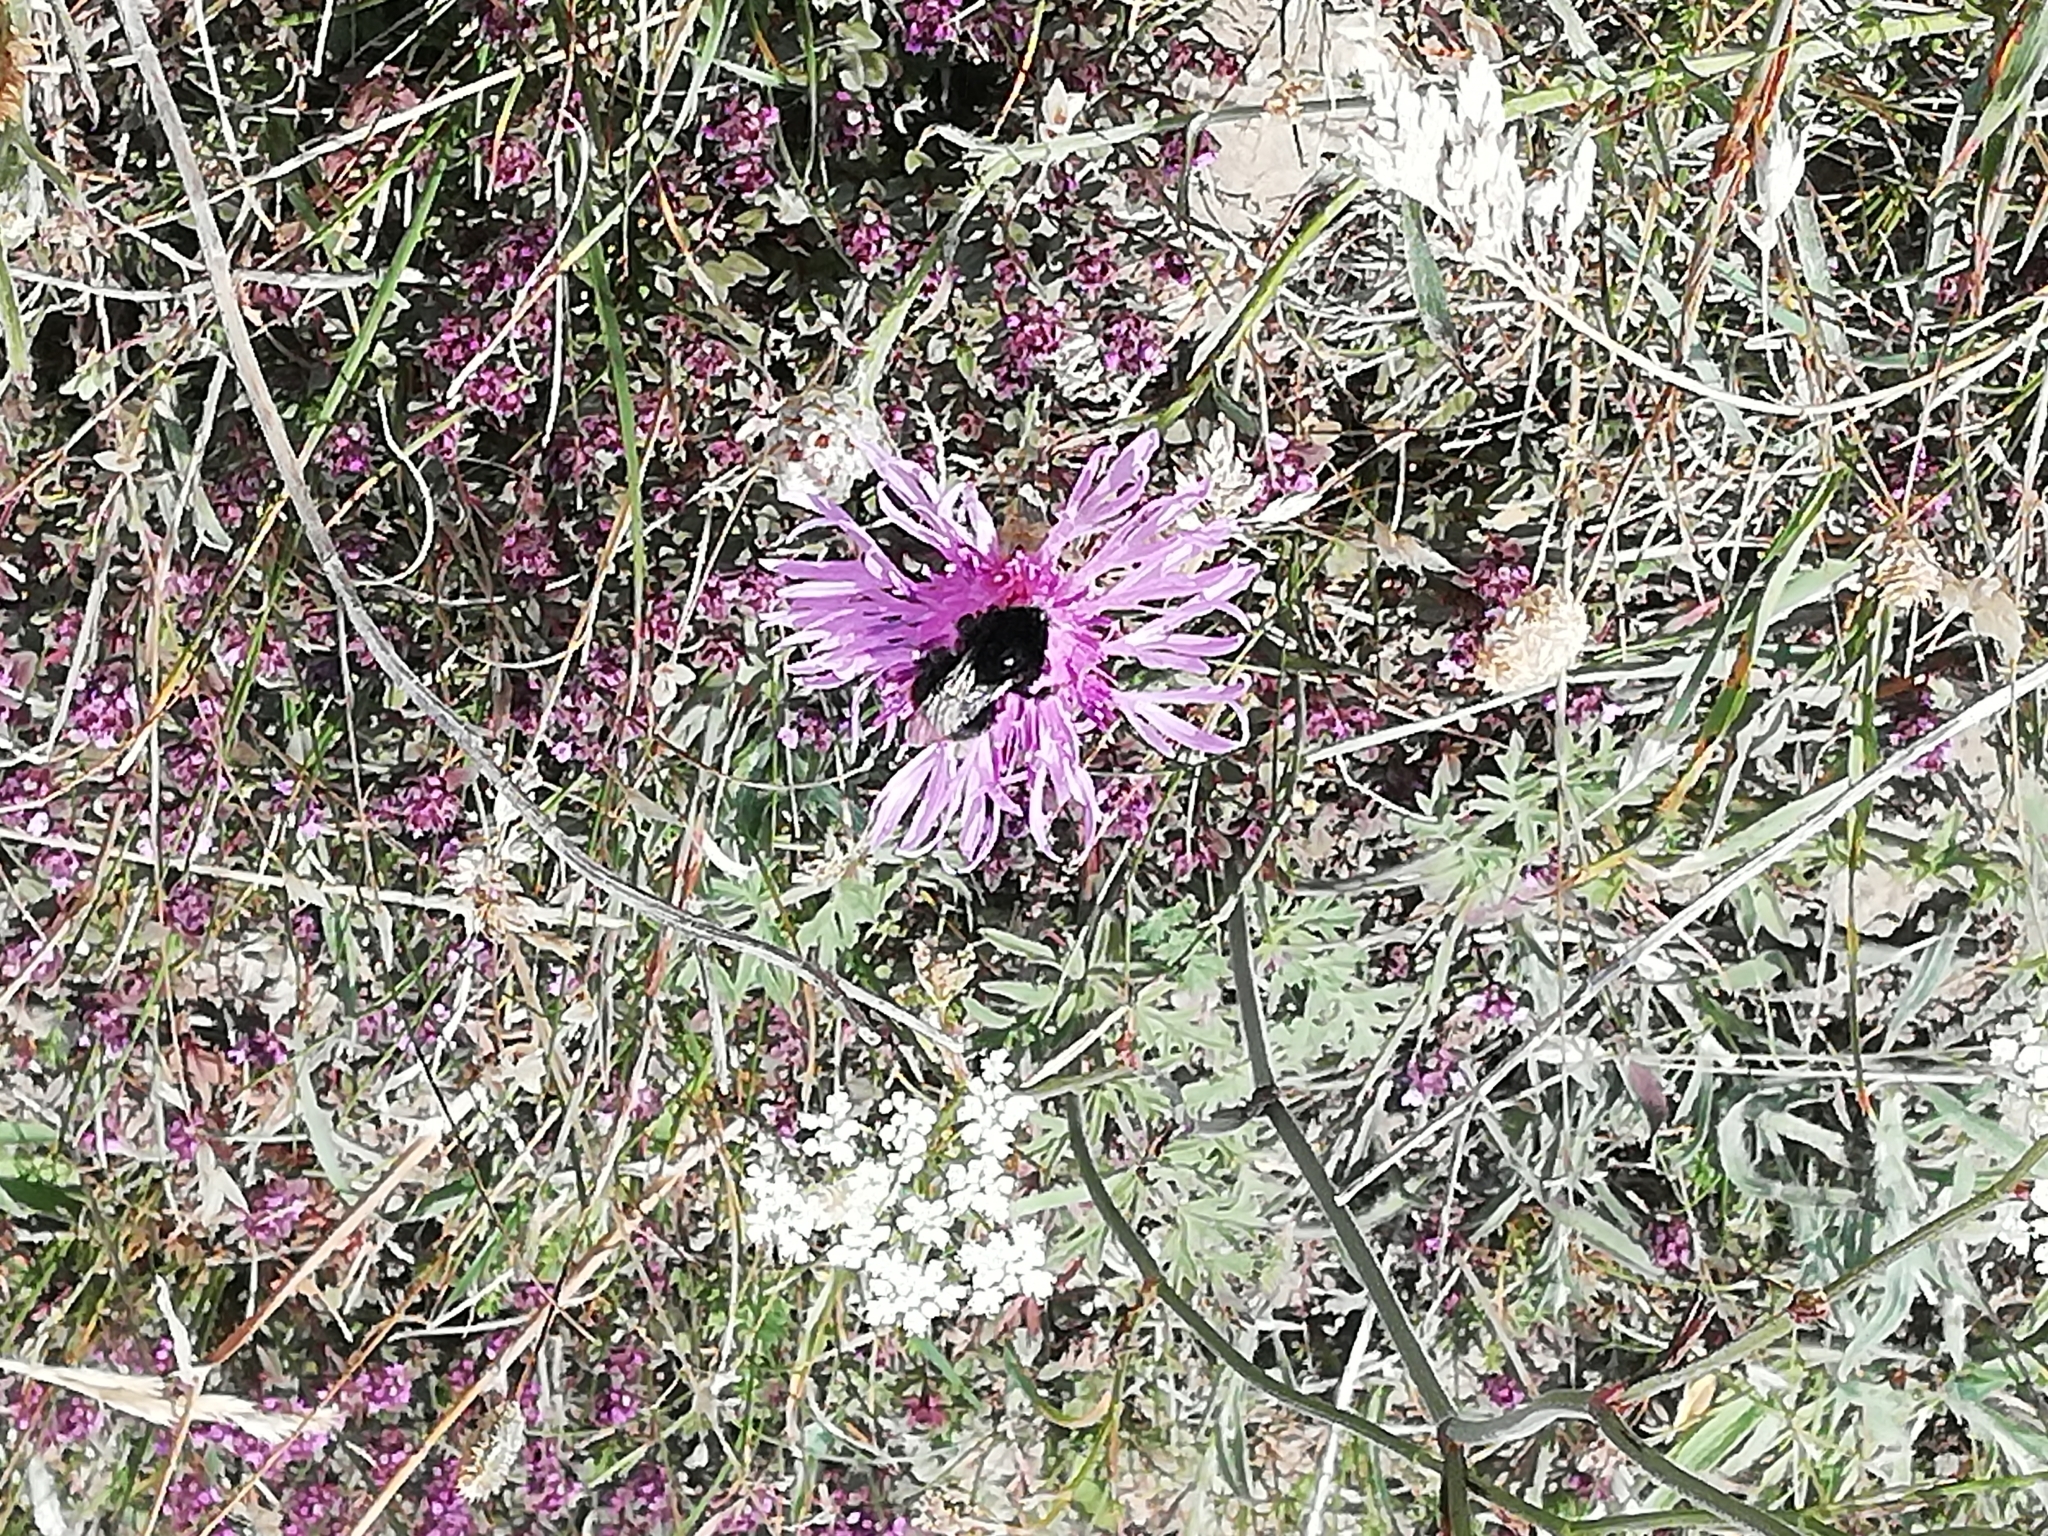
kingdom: Animalia
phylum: Arthropoda
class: Insecta
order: Hymenoptera
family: Apidae
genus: Bombus
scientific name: Bombus lapidarius
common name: Large red-tailed humble-bee
